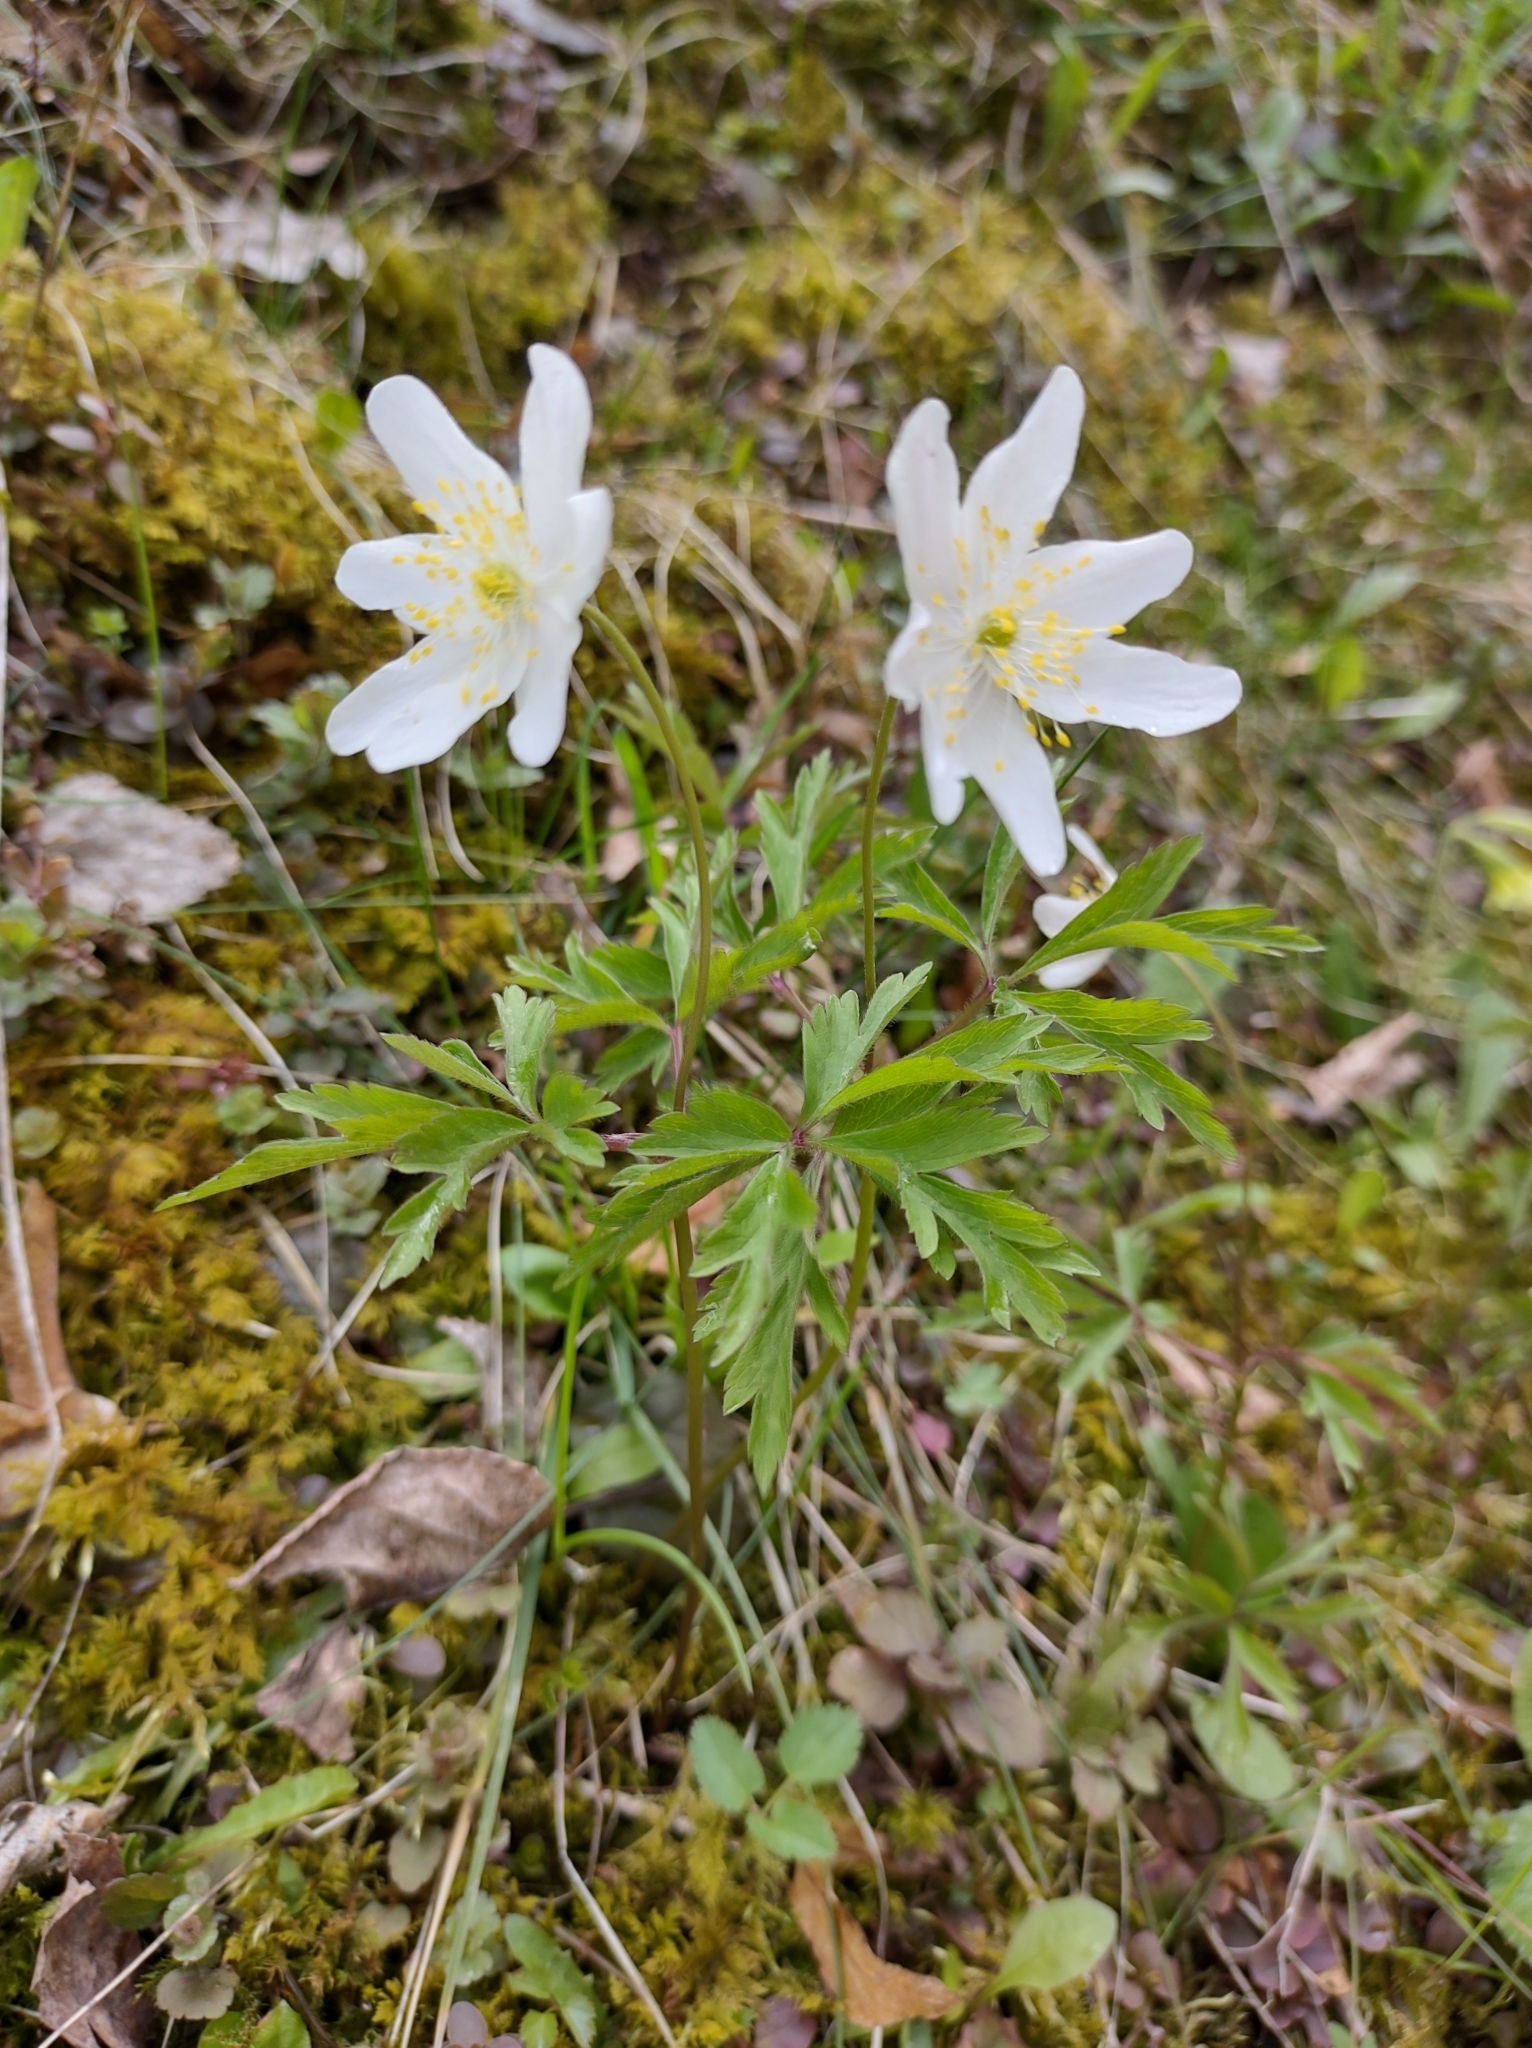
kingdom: Plantae
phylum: Tracheophyta
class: Magnoliopsida
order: Ranunculales
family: Ranunculaceae
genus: Anemone
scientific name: Anemone nemorosa
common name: Wood anemone
